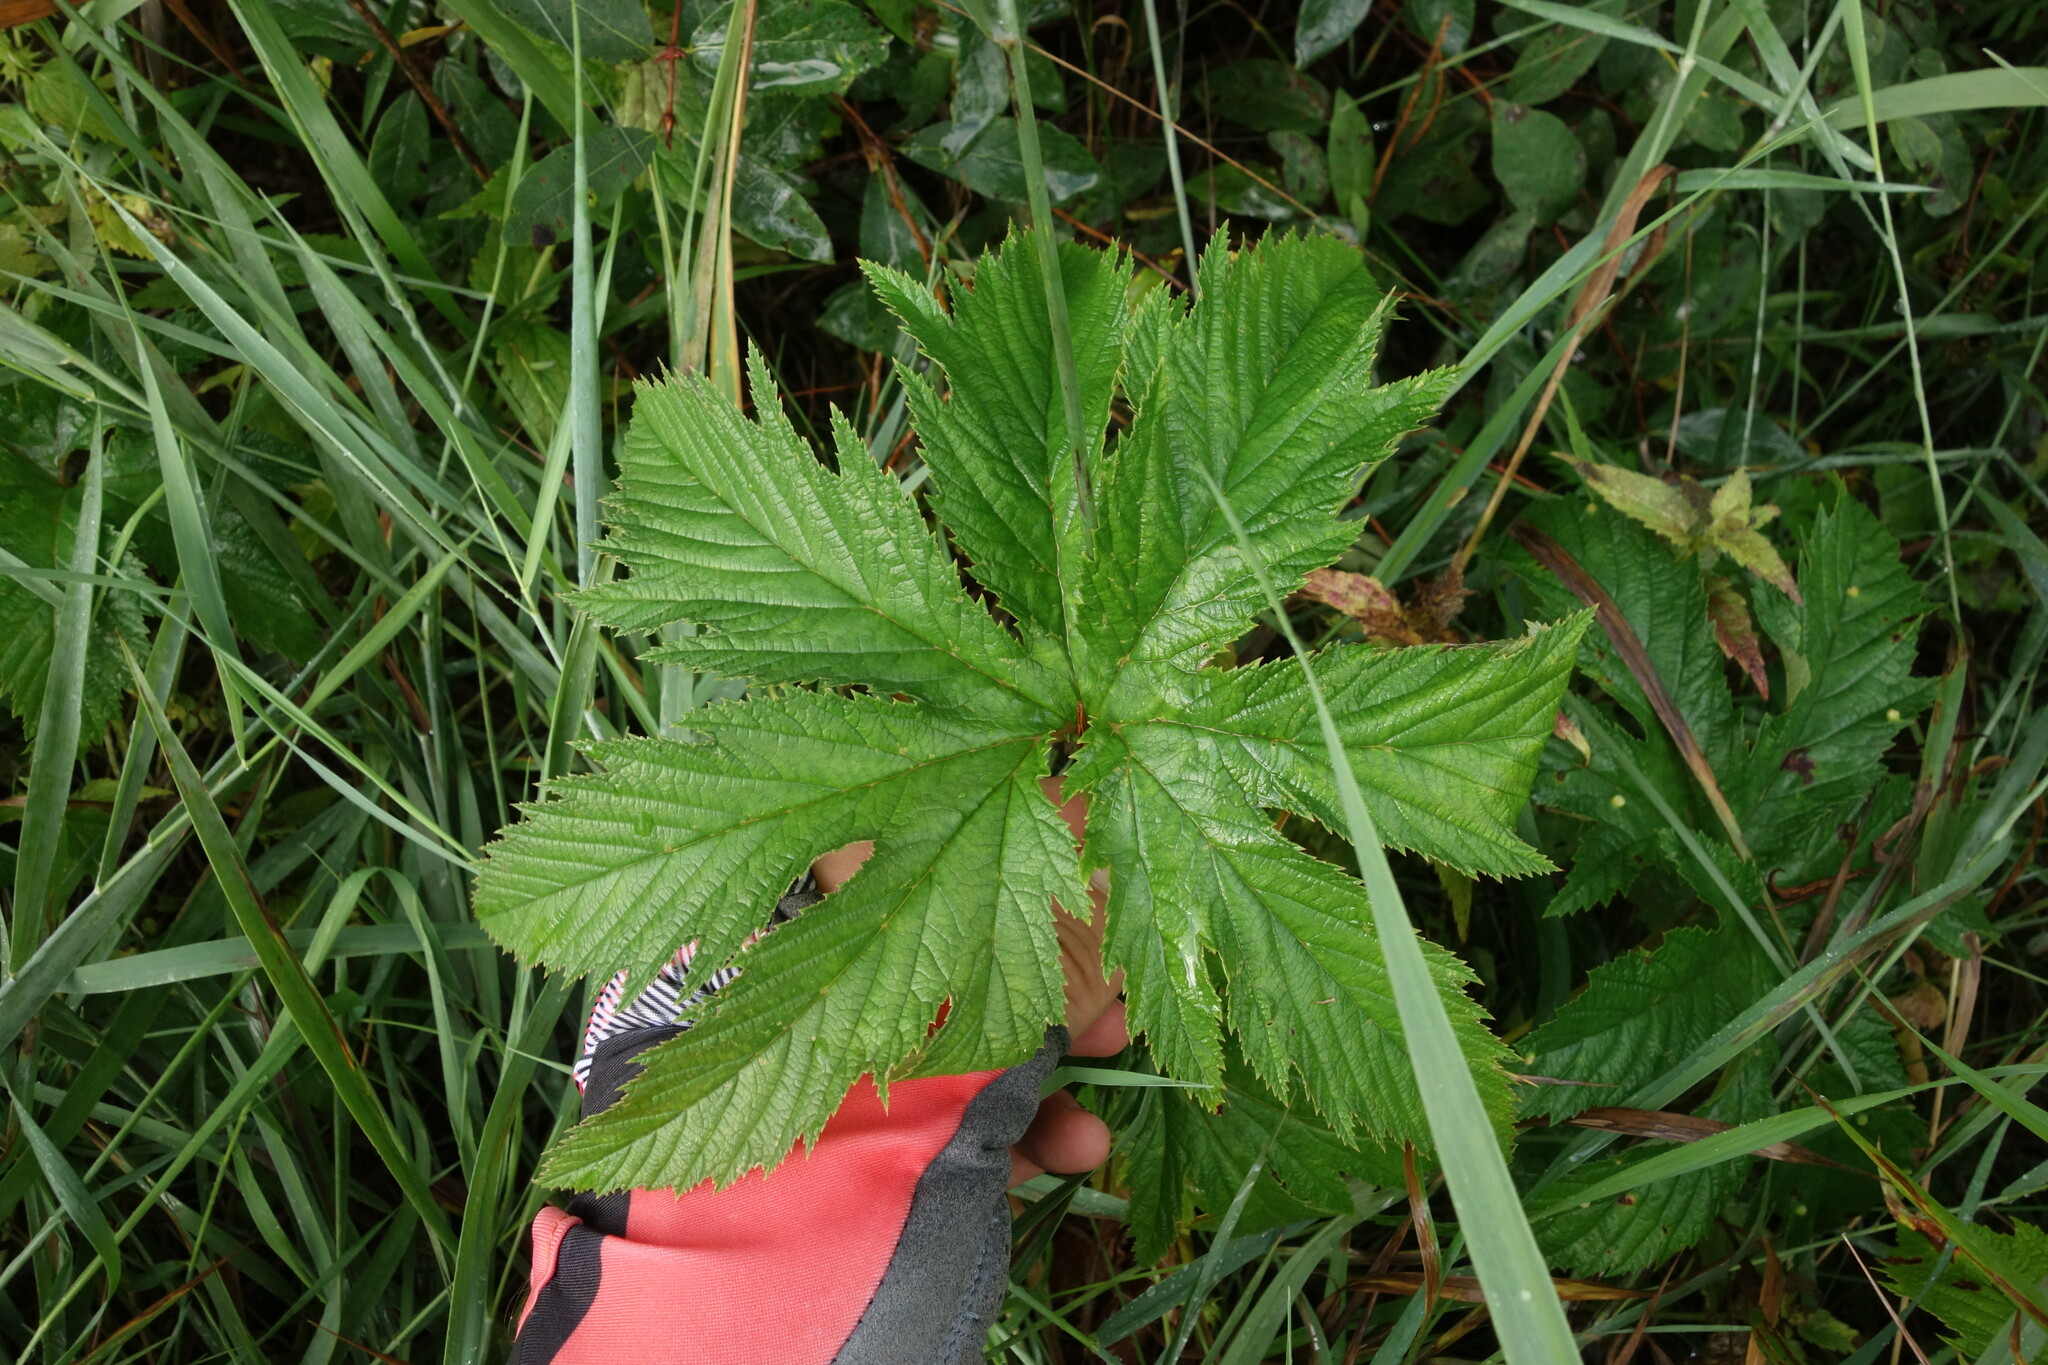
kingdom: Plantae
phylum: Tracheophyta
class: Magnoliopsida
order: Rosales
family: Rosaceae
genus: Filipendula
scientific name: Filipendula digitata
